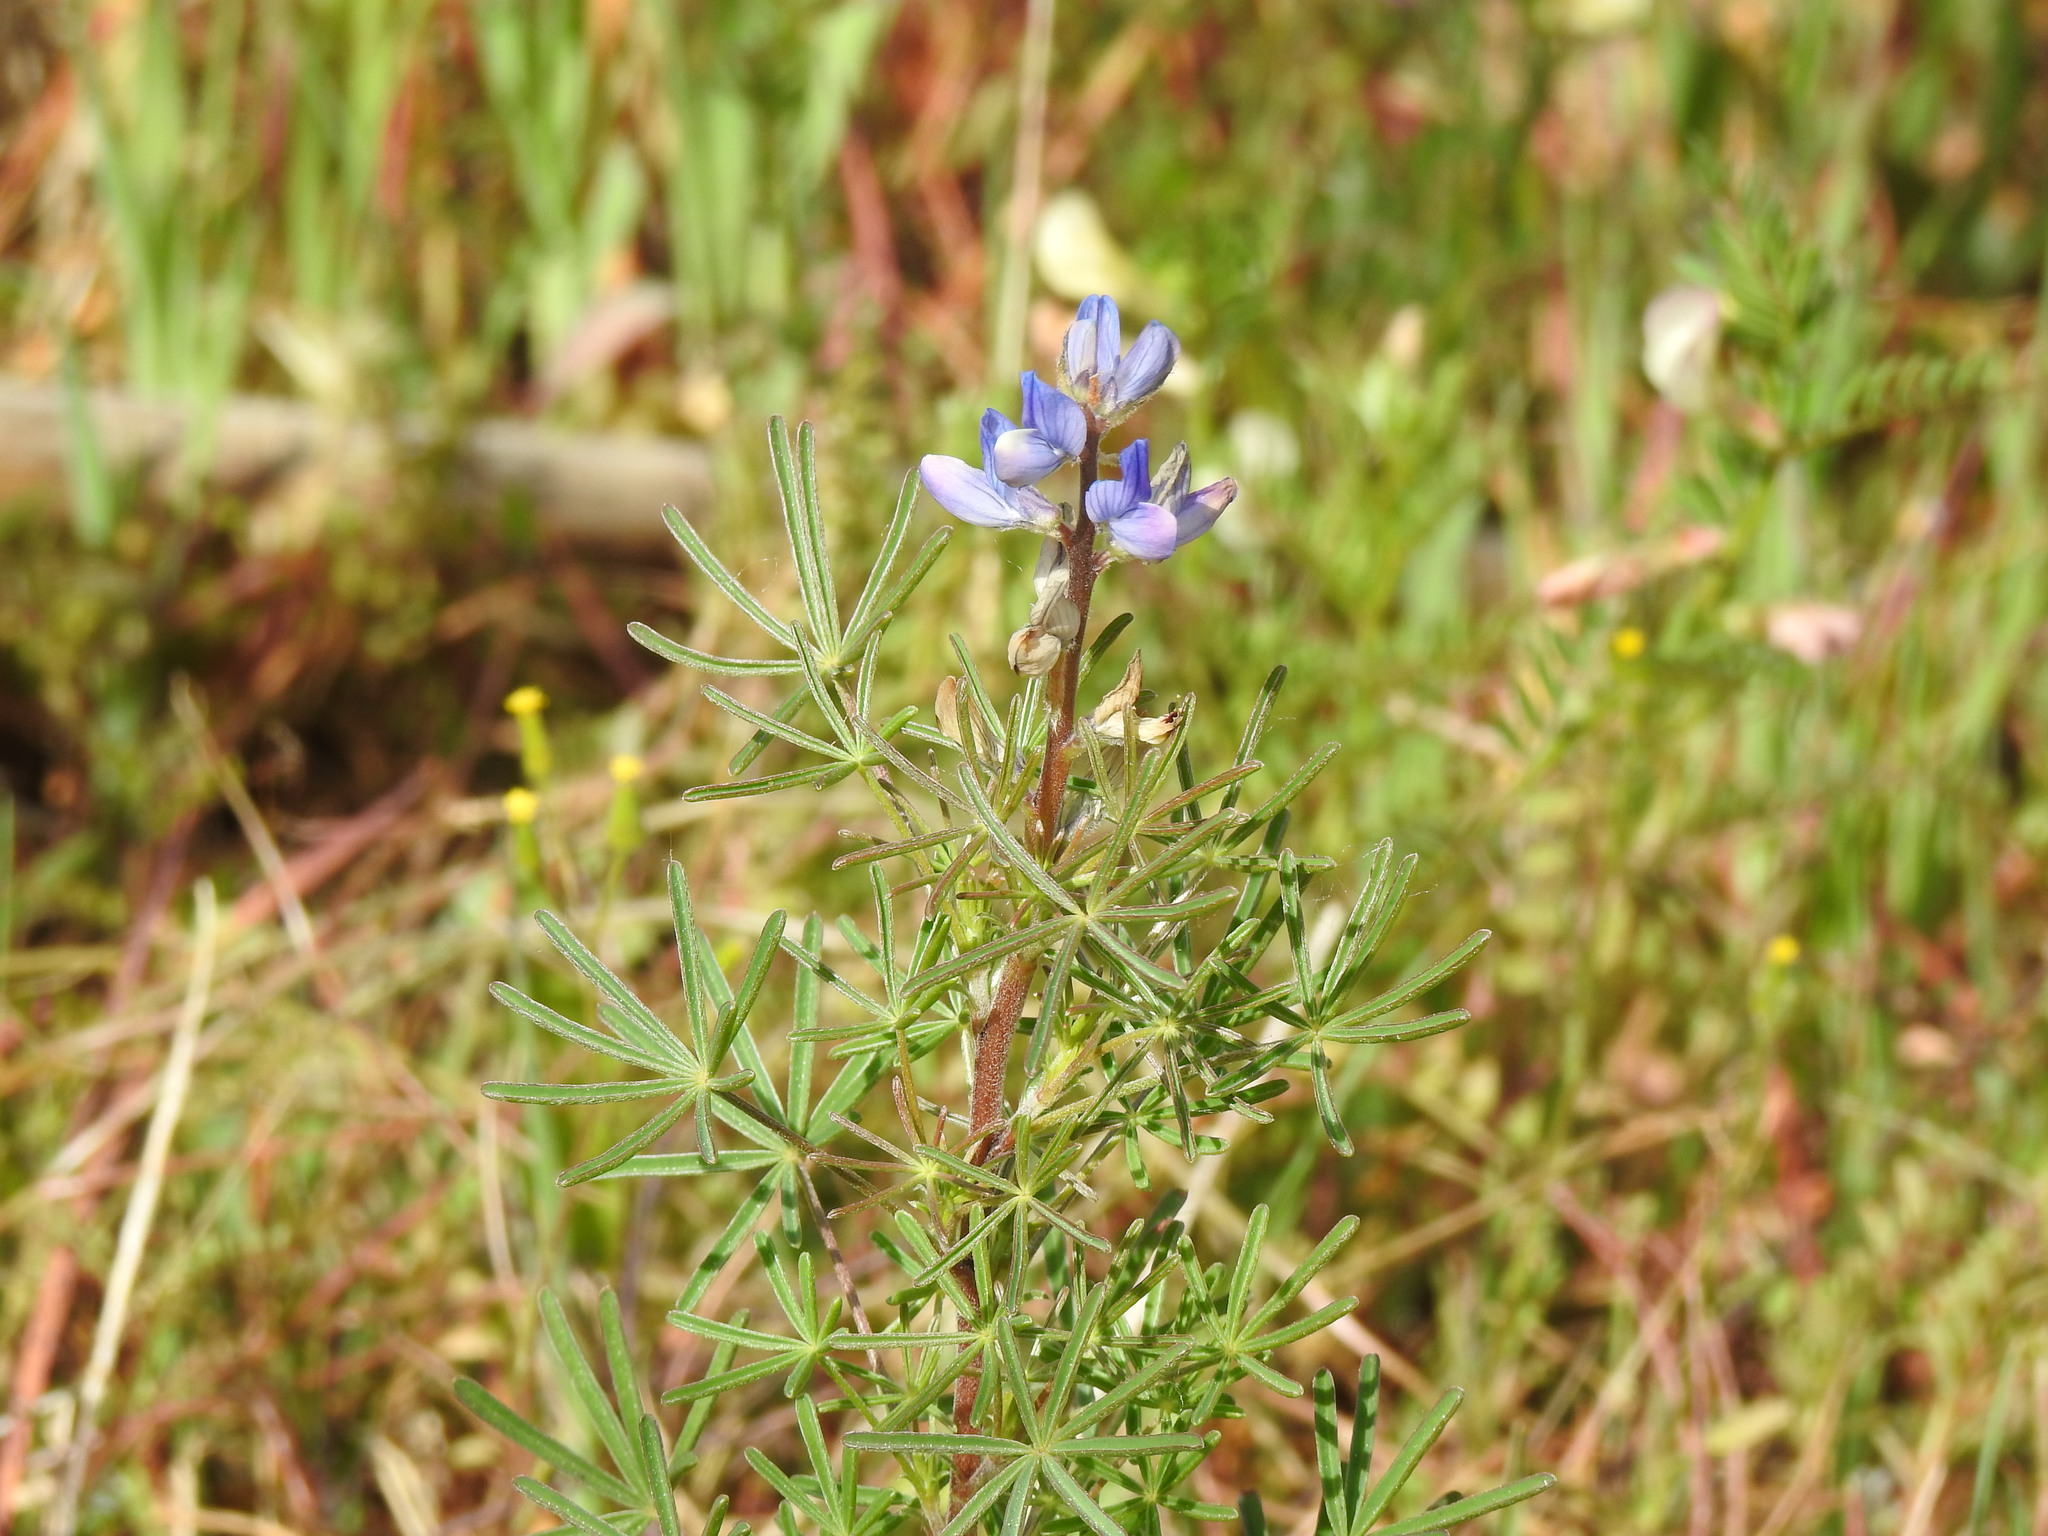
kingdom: Plantae
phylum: Tracheophyta
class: Magnoliopsida
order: Fabales
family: Fabaceae
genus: Lupinus
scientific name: Lupinus angustifolius
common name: Narrow-leaved lupin
